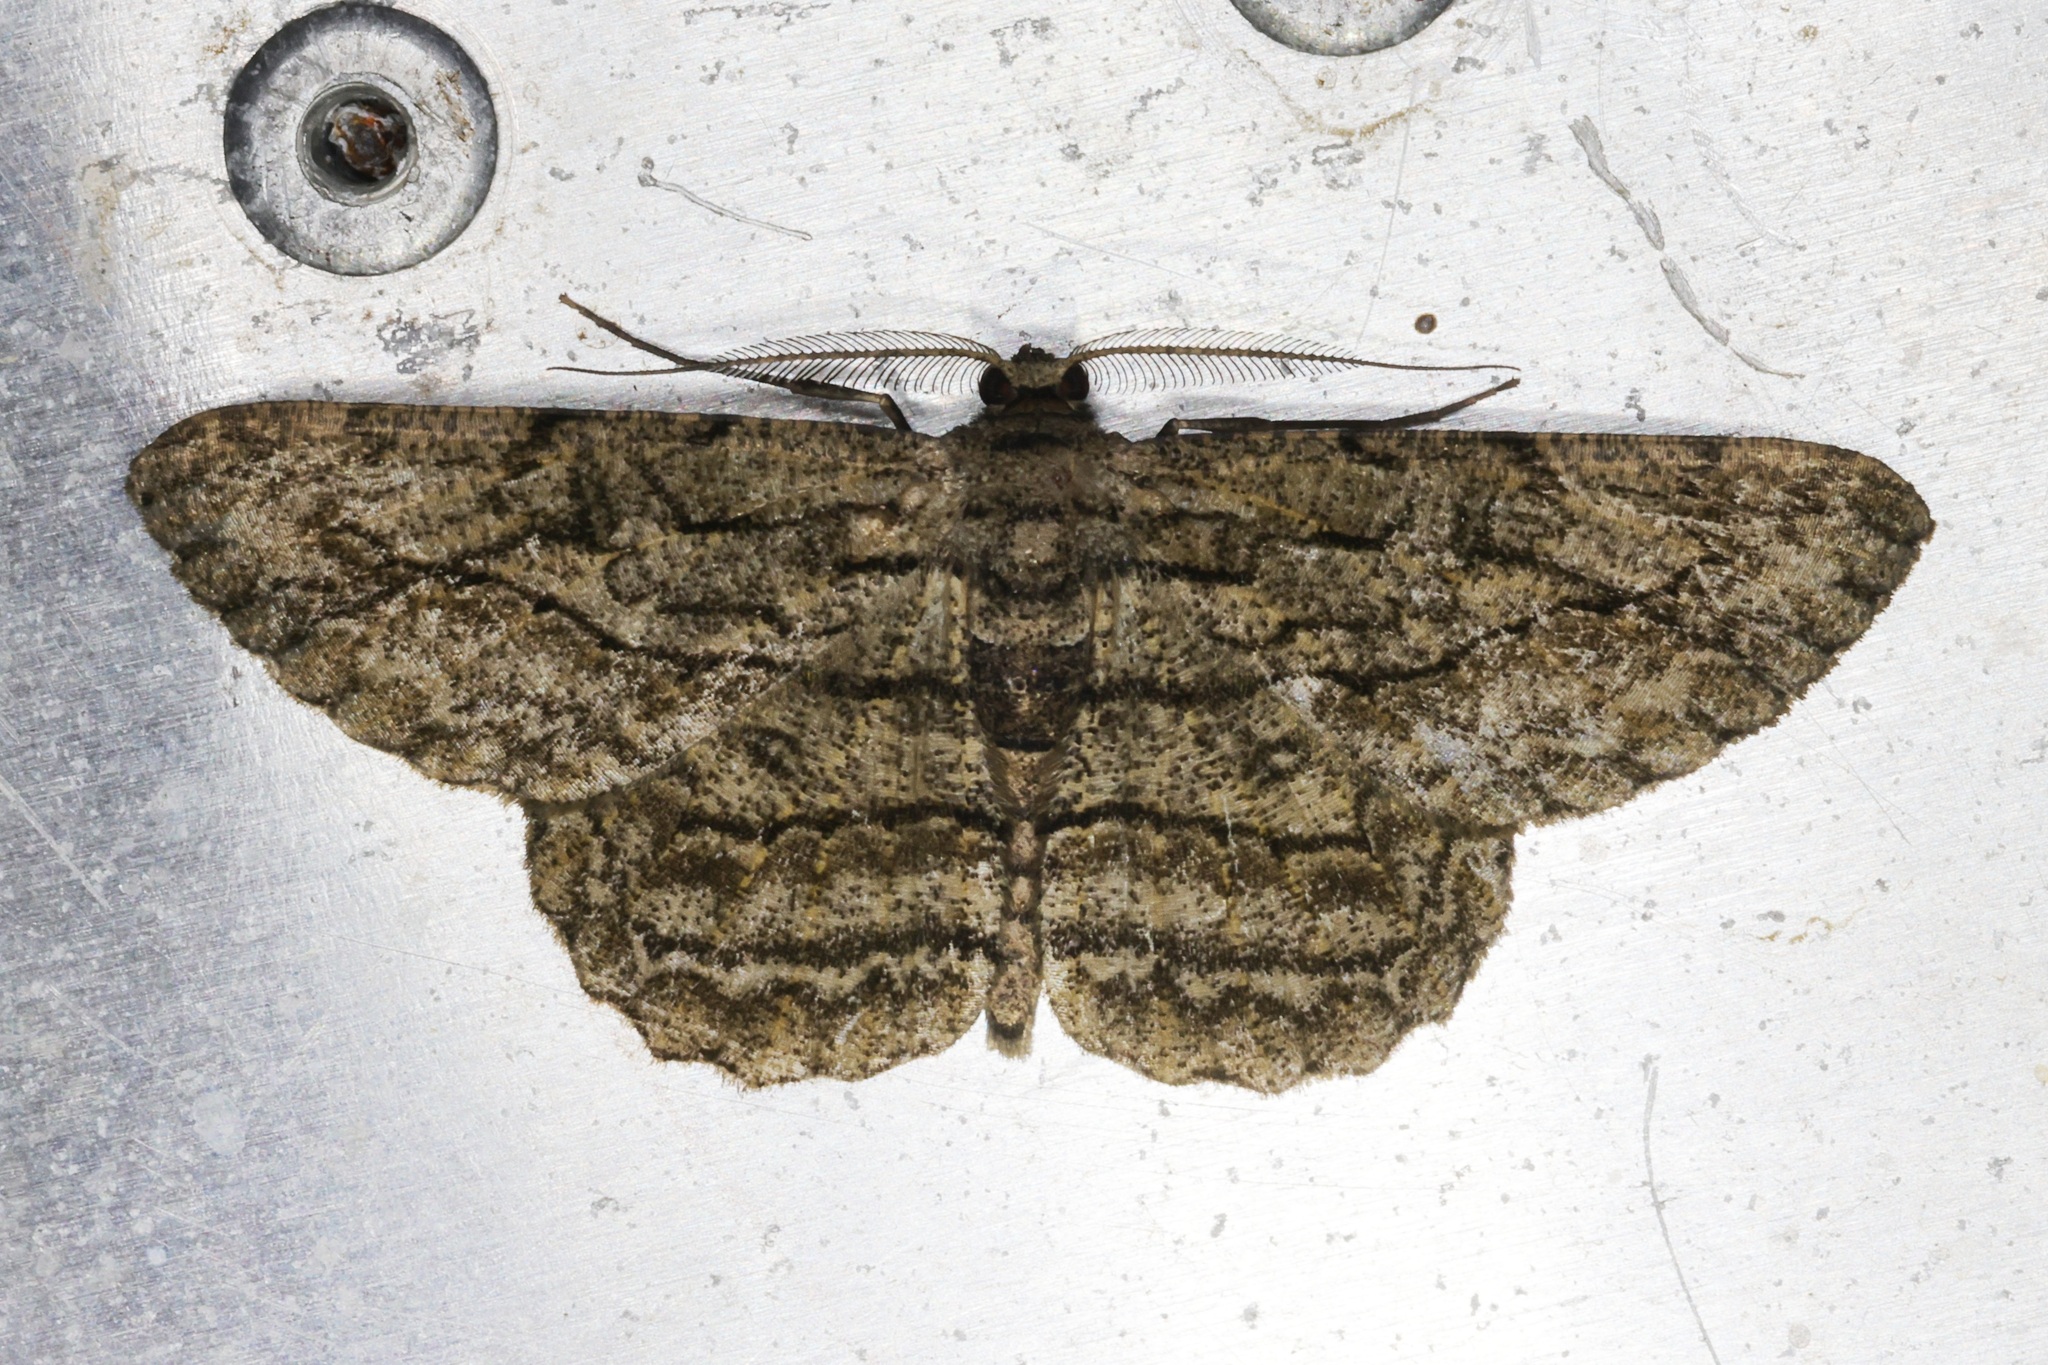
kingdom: Animalia
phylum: Arthropoda
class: Insecta
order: Lepidoptera
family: Geometridae
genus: Hypomecis
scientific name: Hypomecis transcissa
